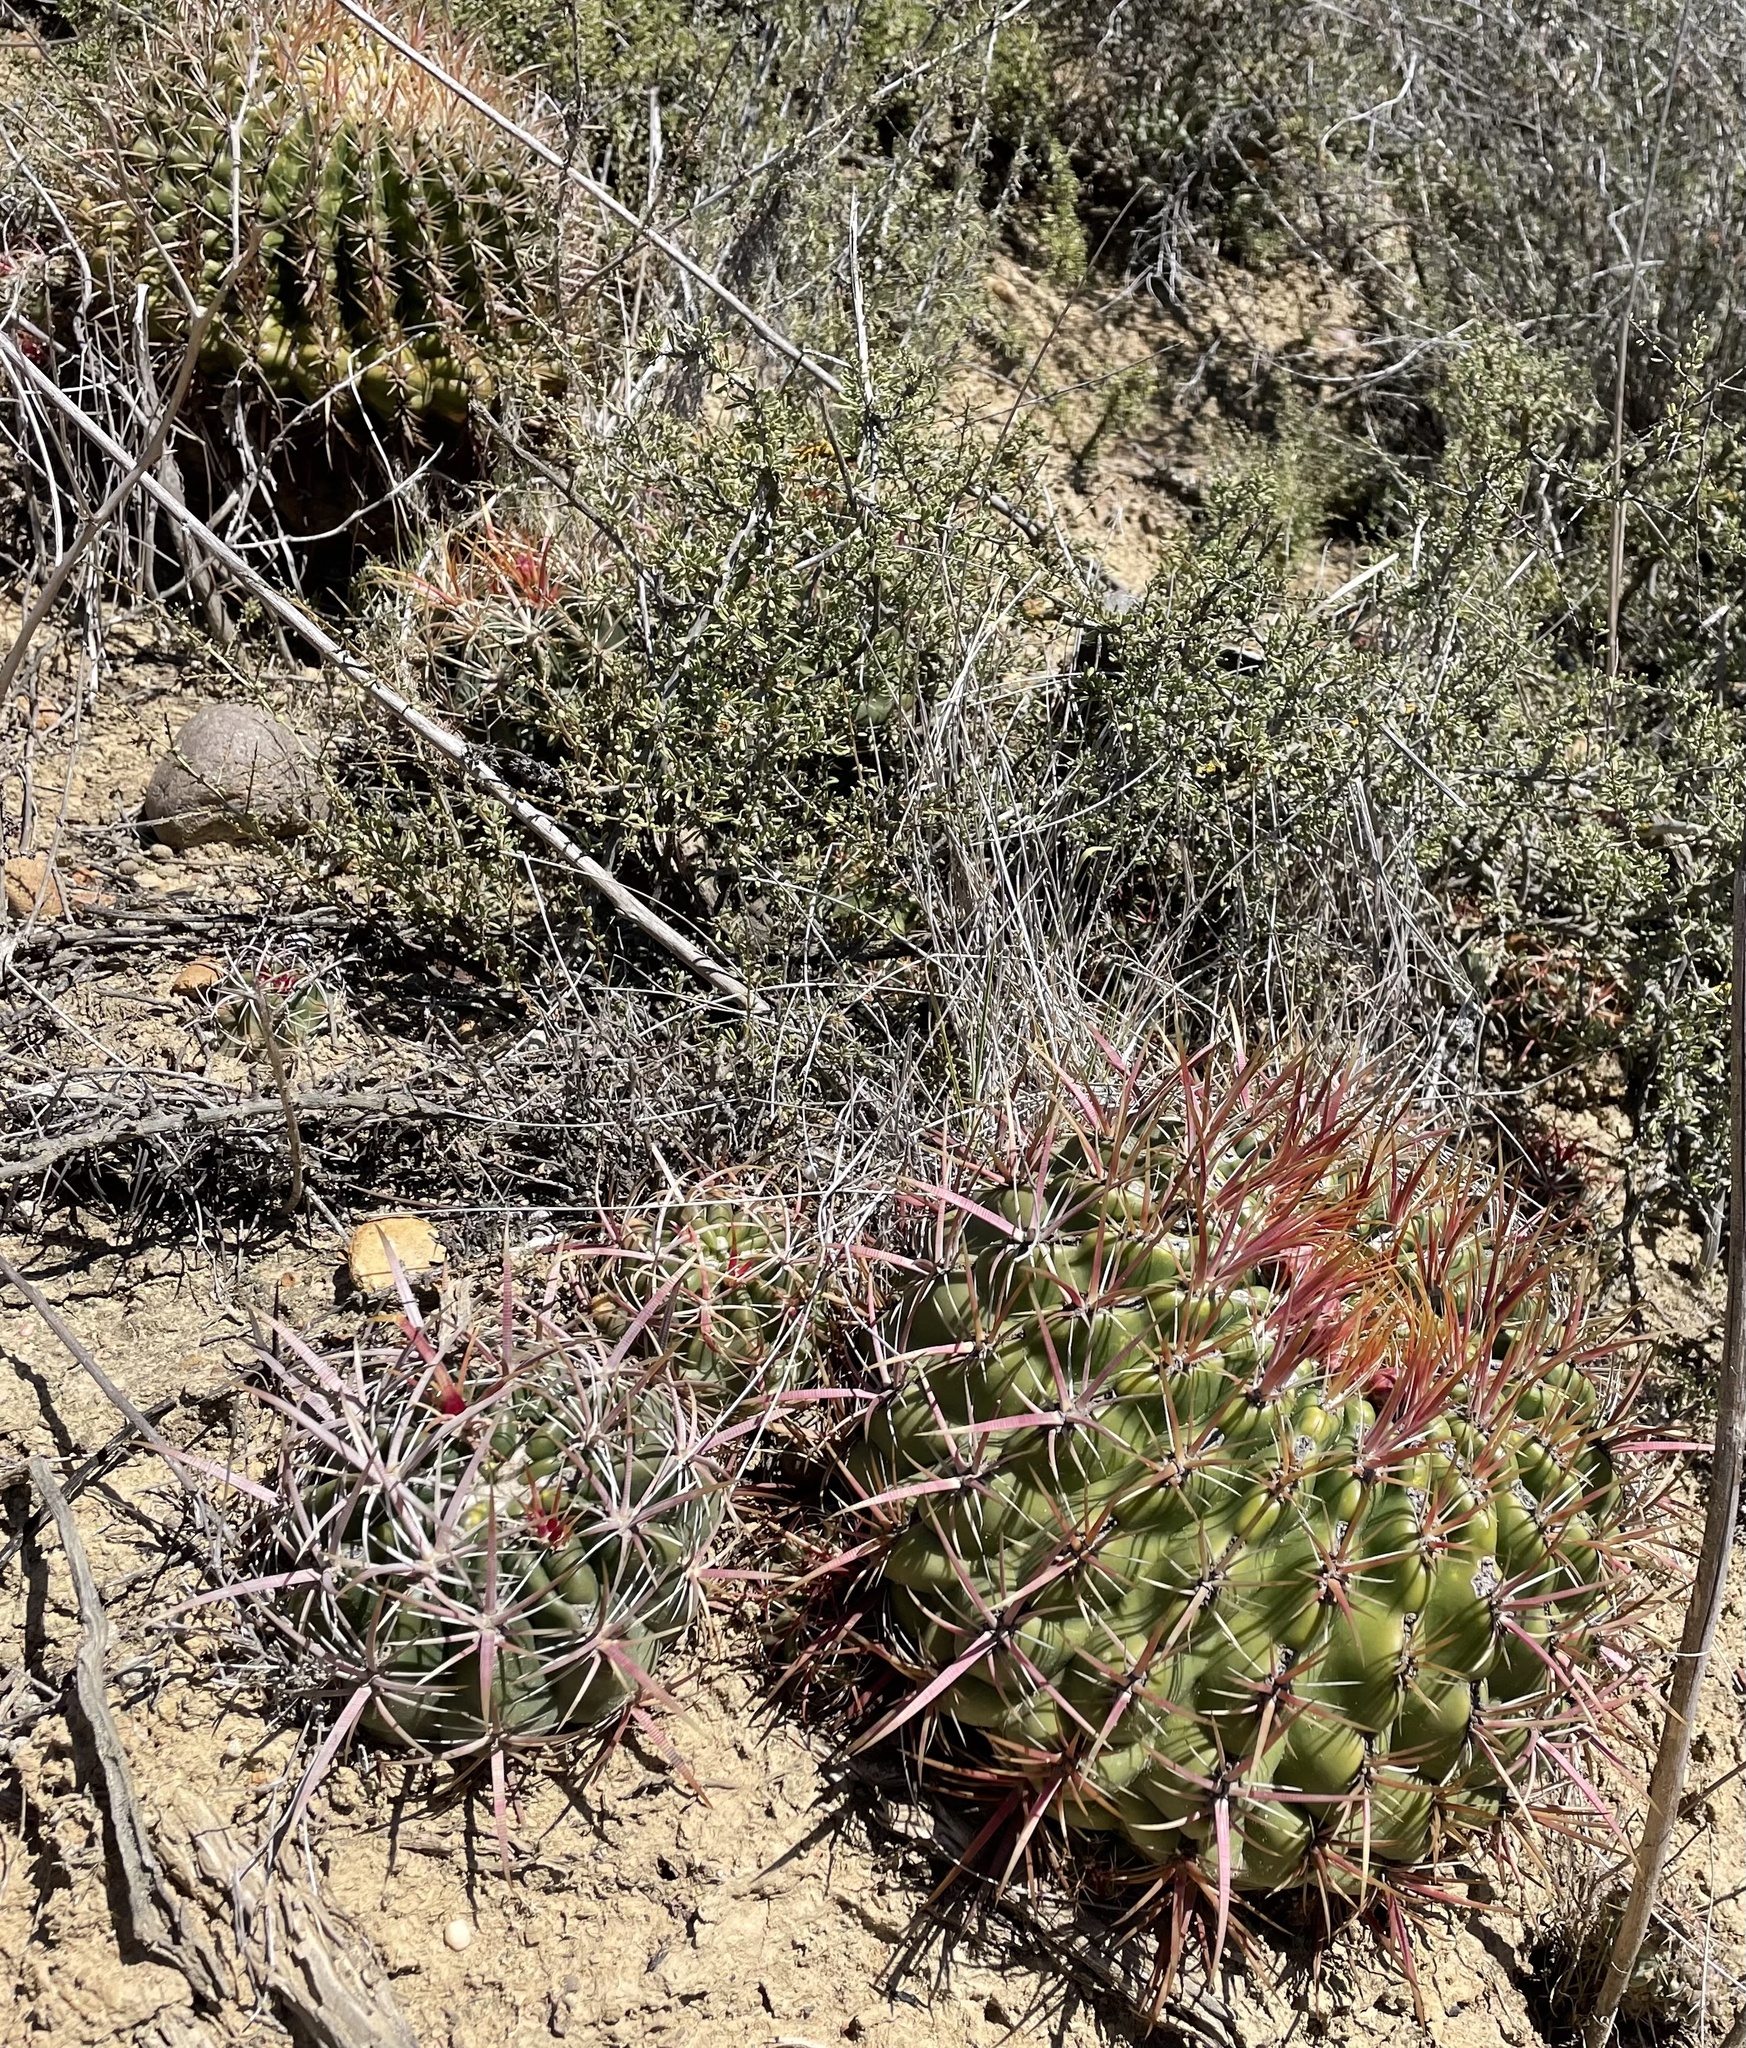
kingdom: Plantae
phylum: Tracheophyta
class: Magnoliopsida
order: Caryophyllales
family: Cactaceae
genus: Ferocactus
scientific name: Ferocactus viridescens
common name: San diego barrel cactus
